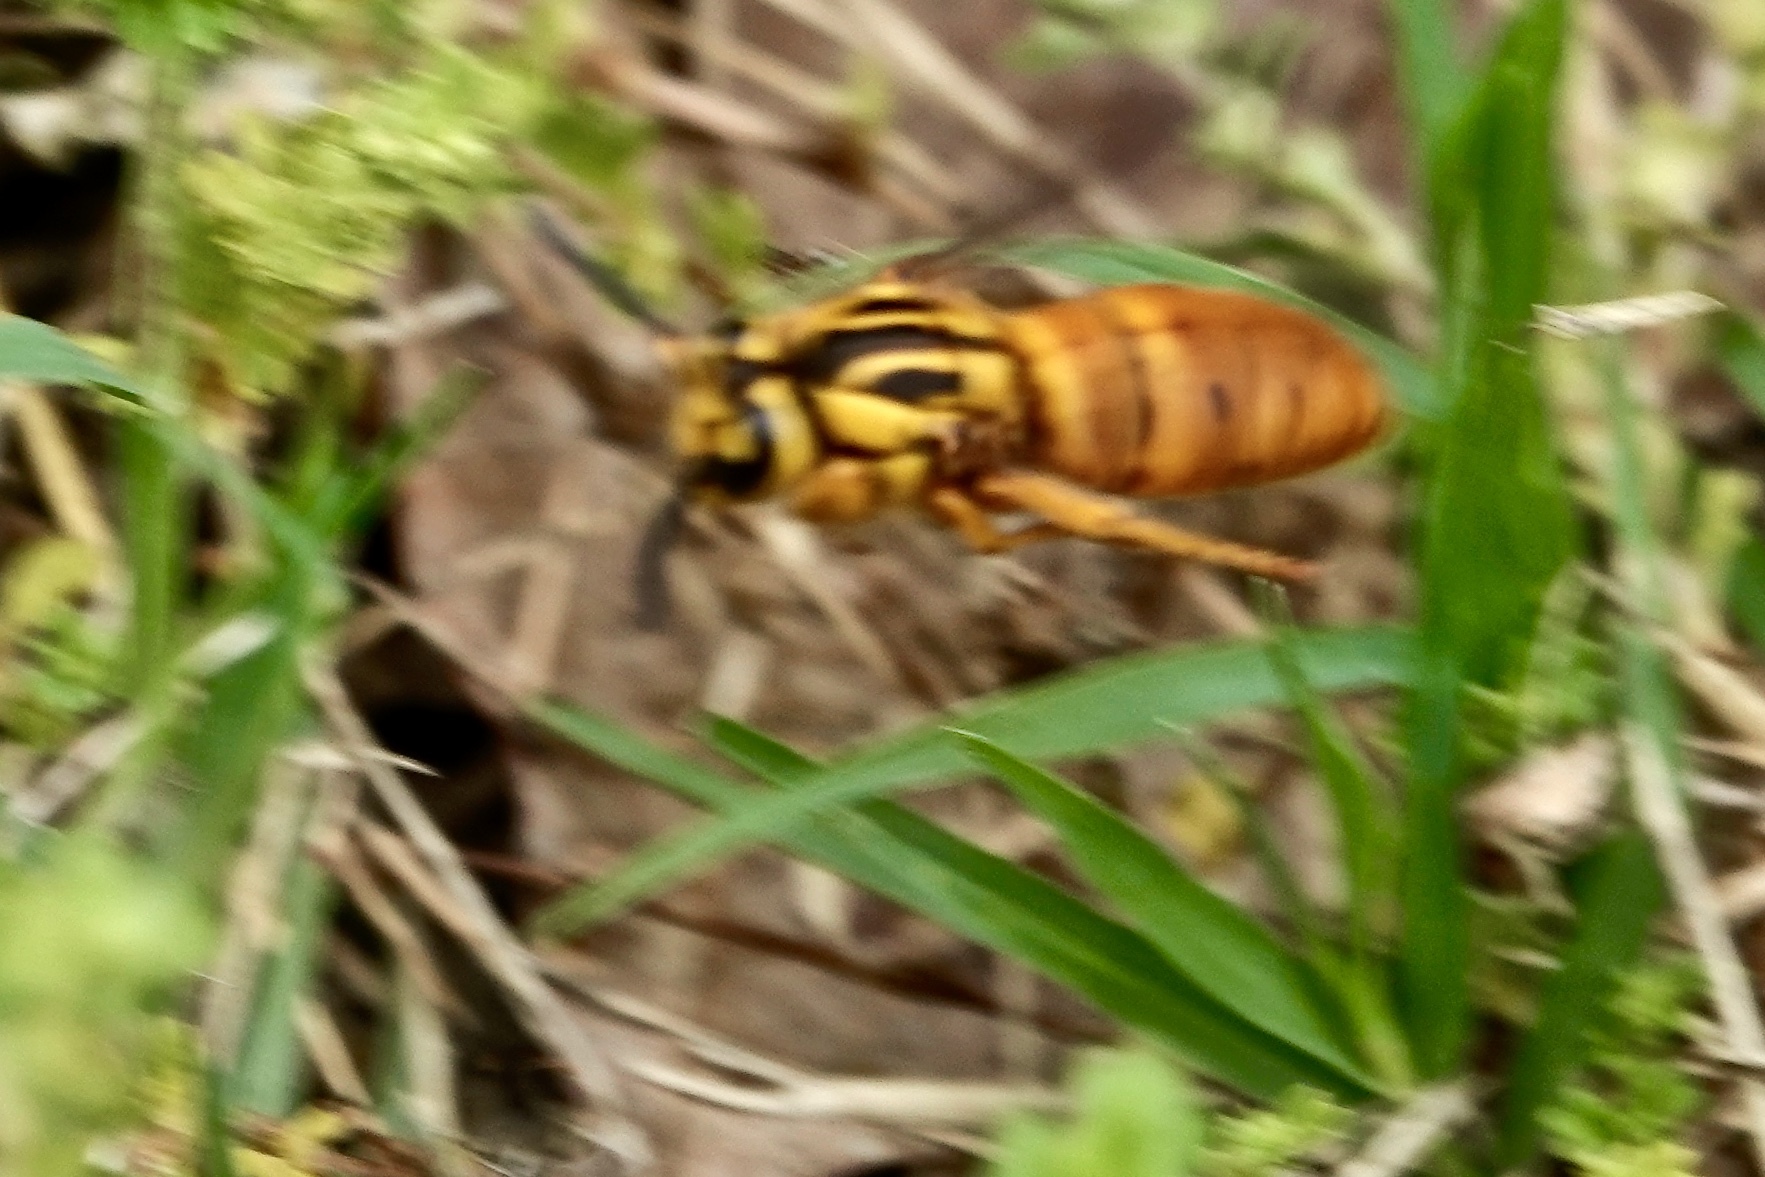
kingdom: Animalia
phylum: Arthropoda
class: Insecta
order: Hymenoptera
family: Vespidae
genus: Vespula
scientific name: Vespula squamosa
